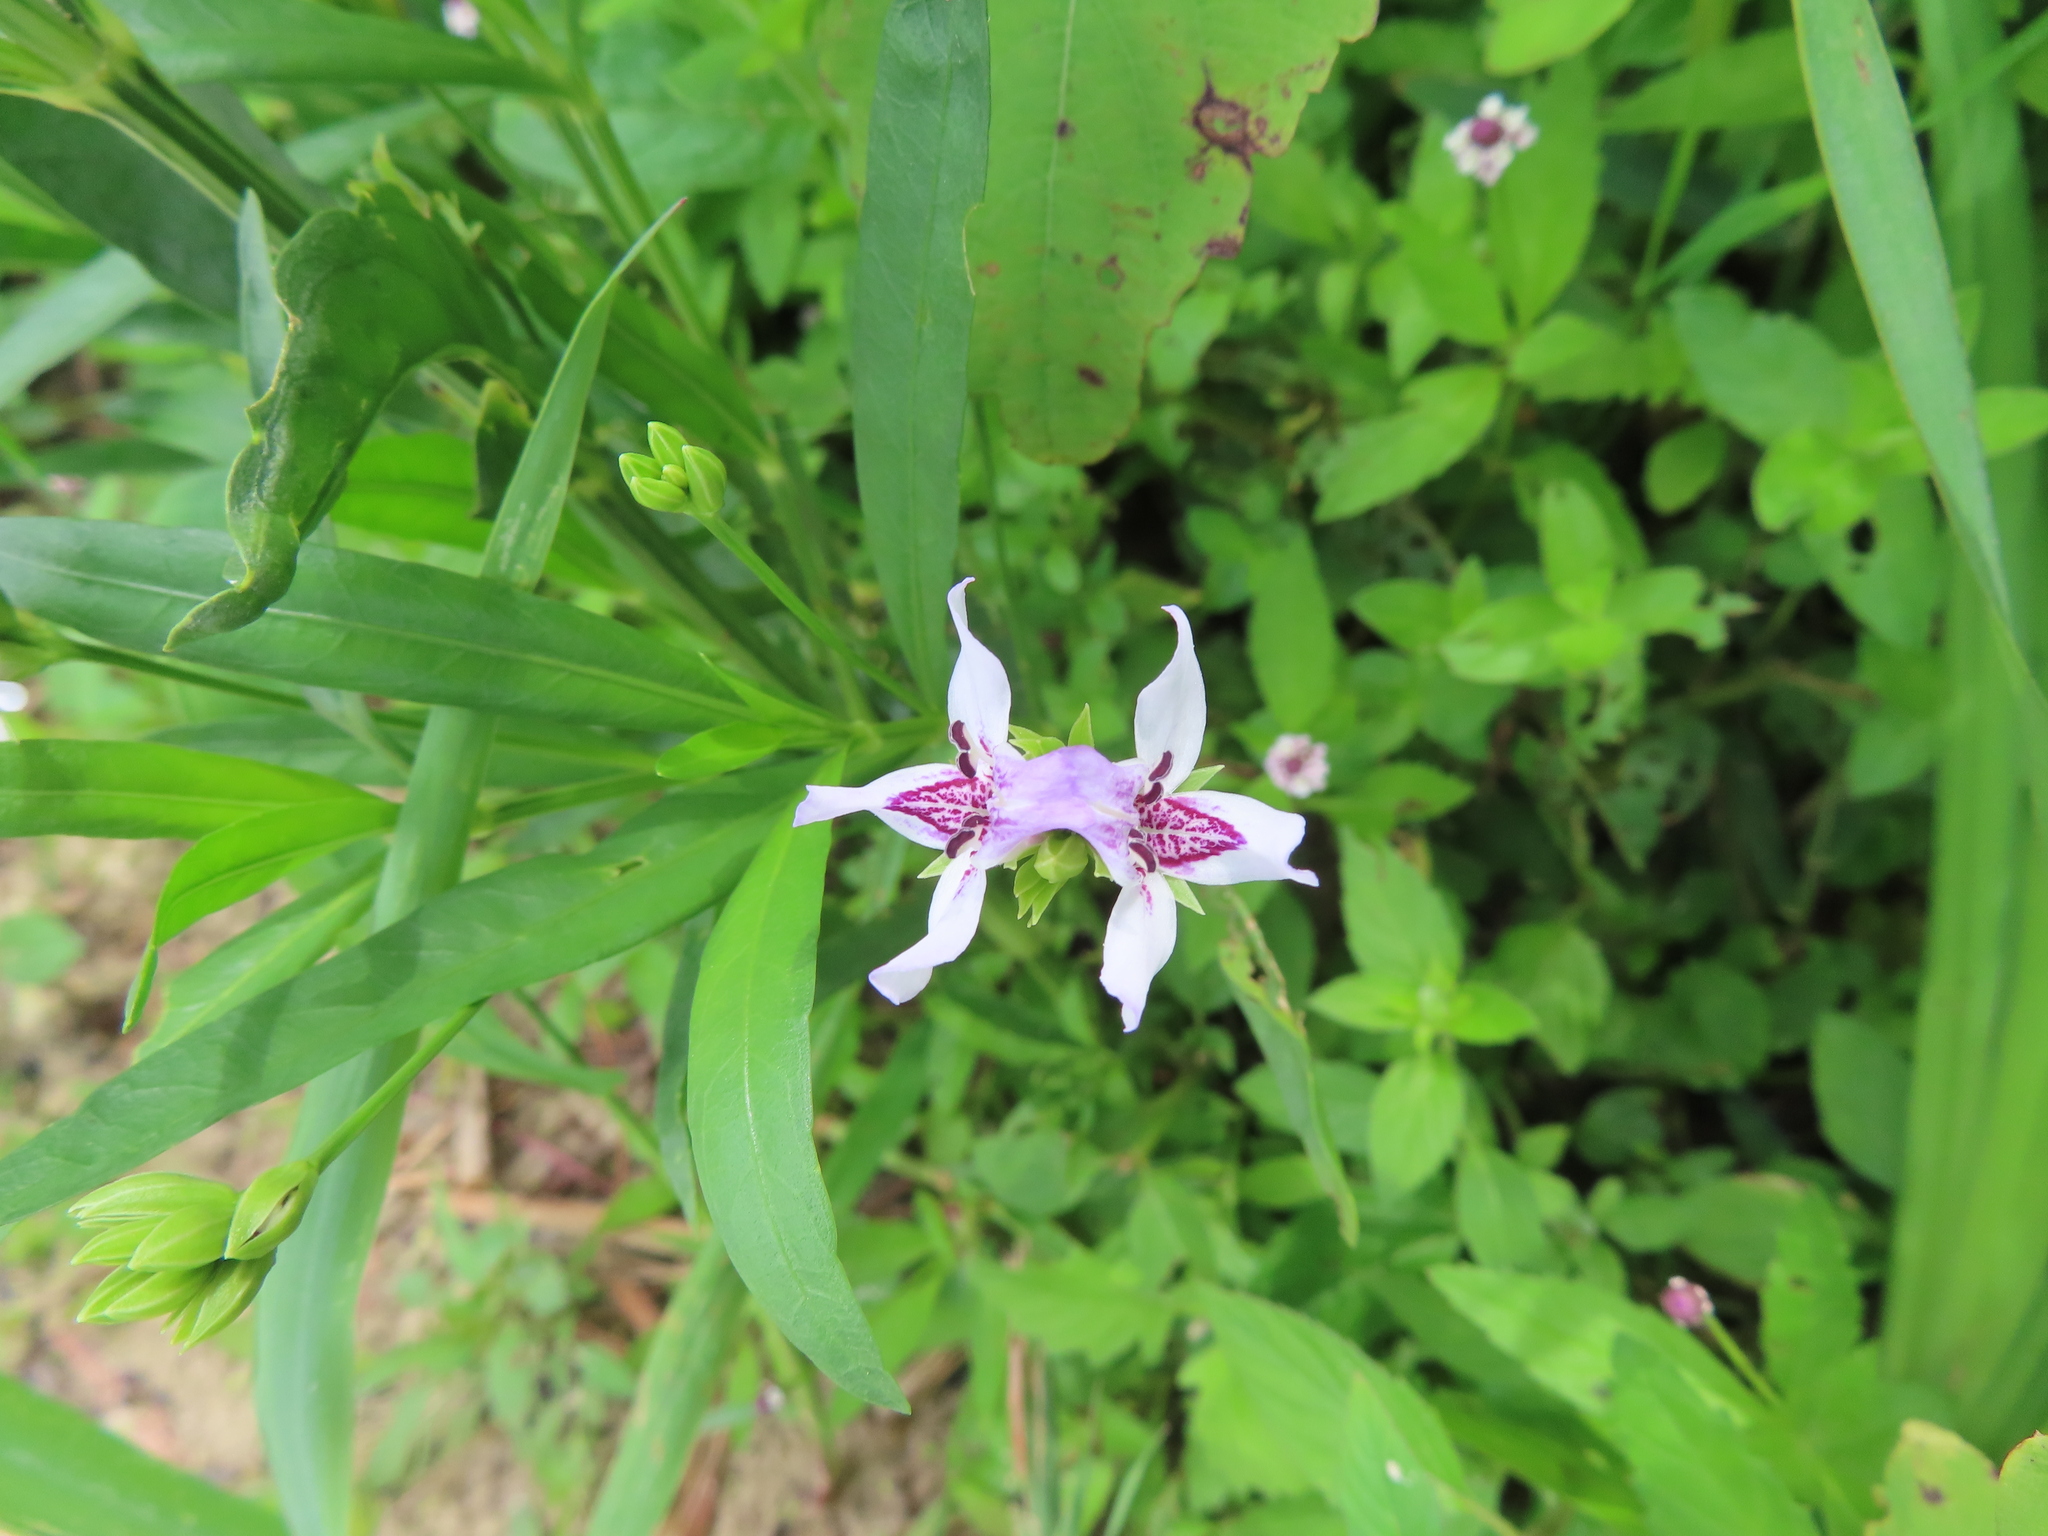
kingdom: Plantae
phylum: Tracheophyta
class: Magnoliopsida
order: Lamiales
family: Acanthaceae
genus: Dianthera
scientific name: Dianthera americana
